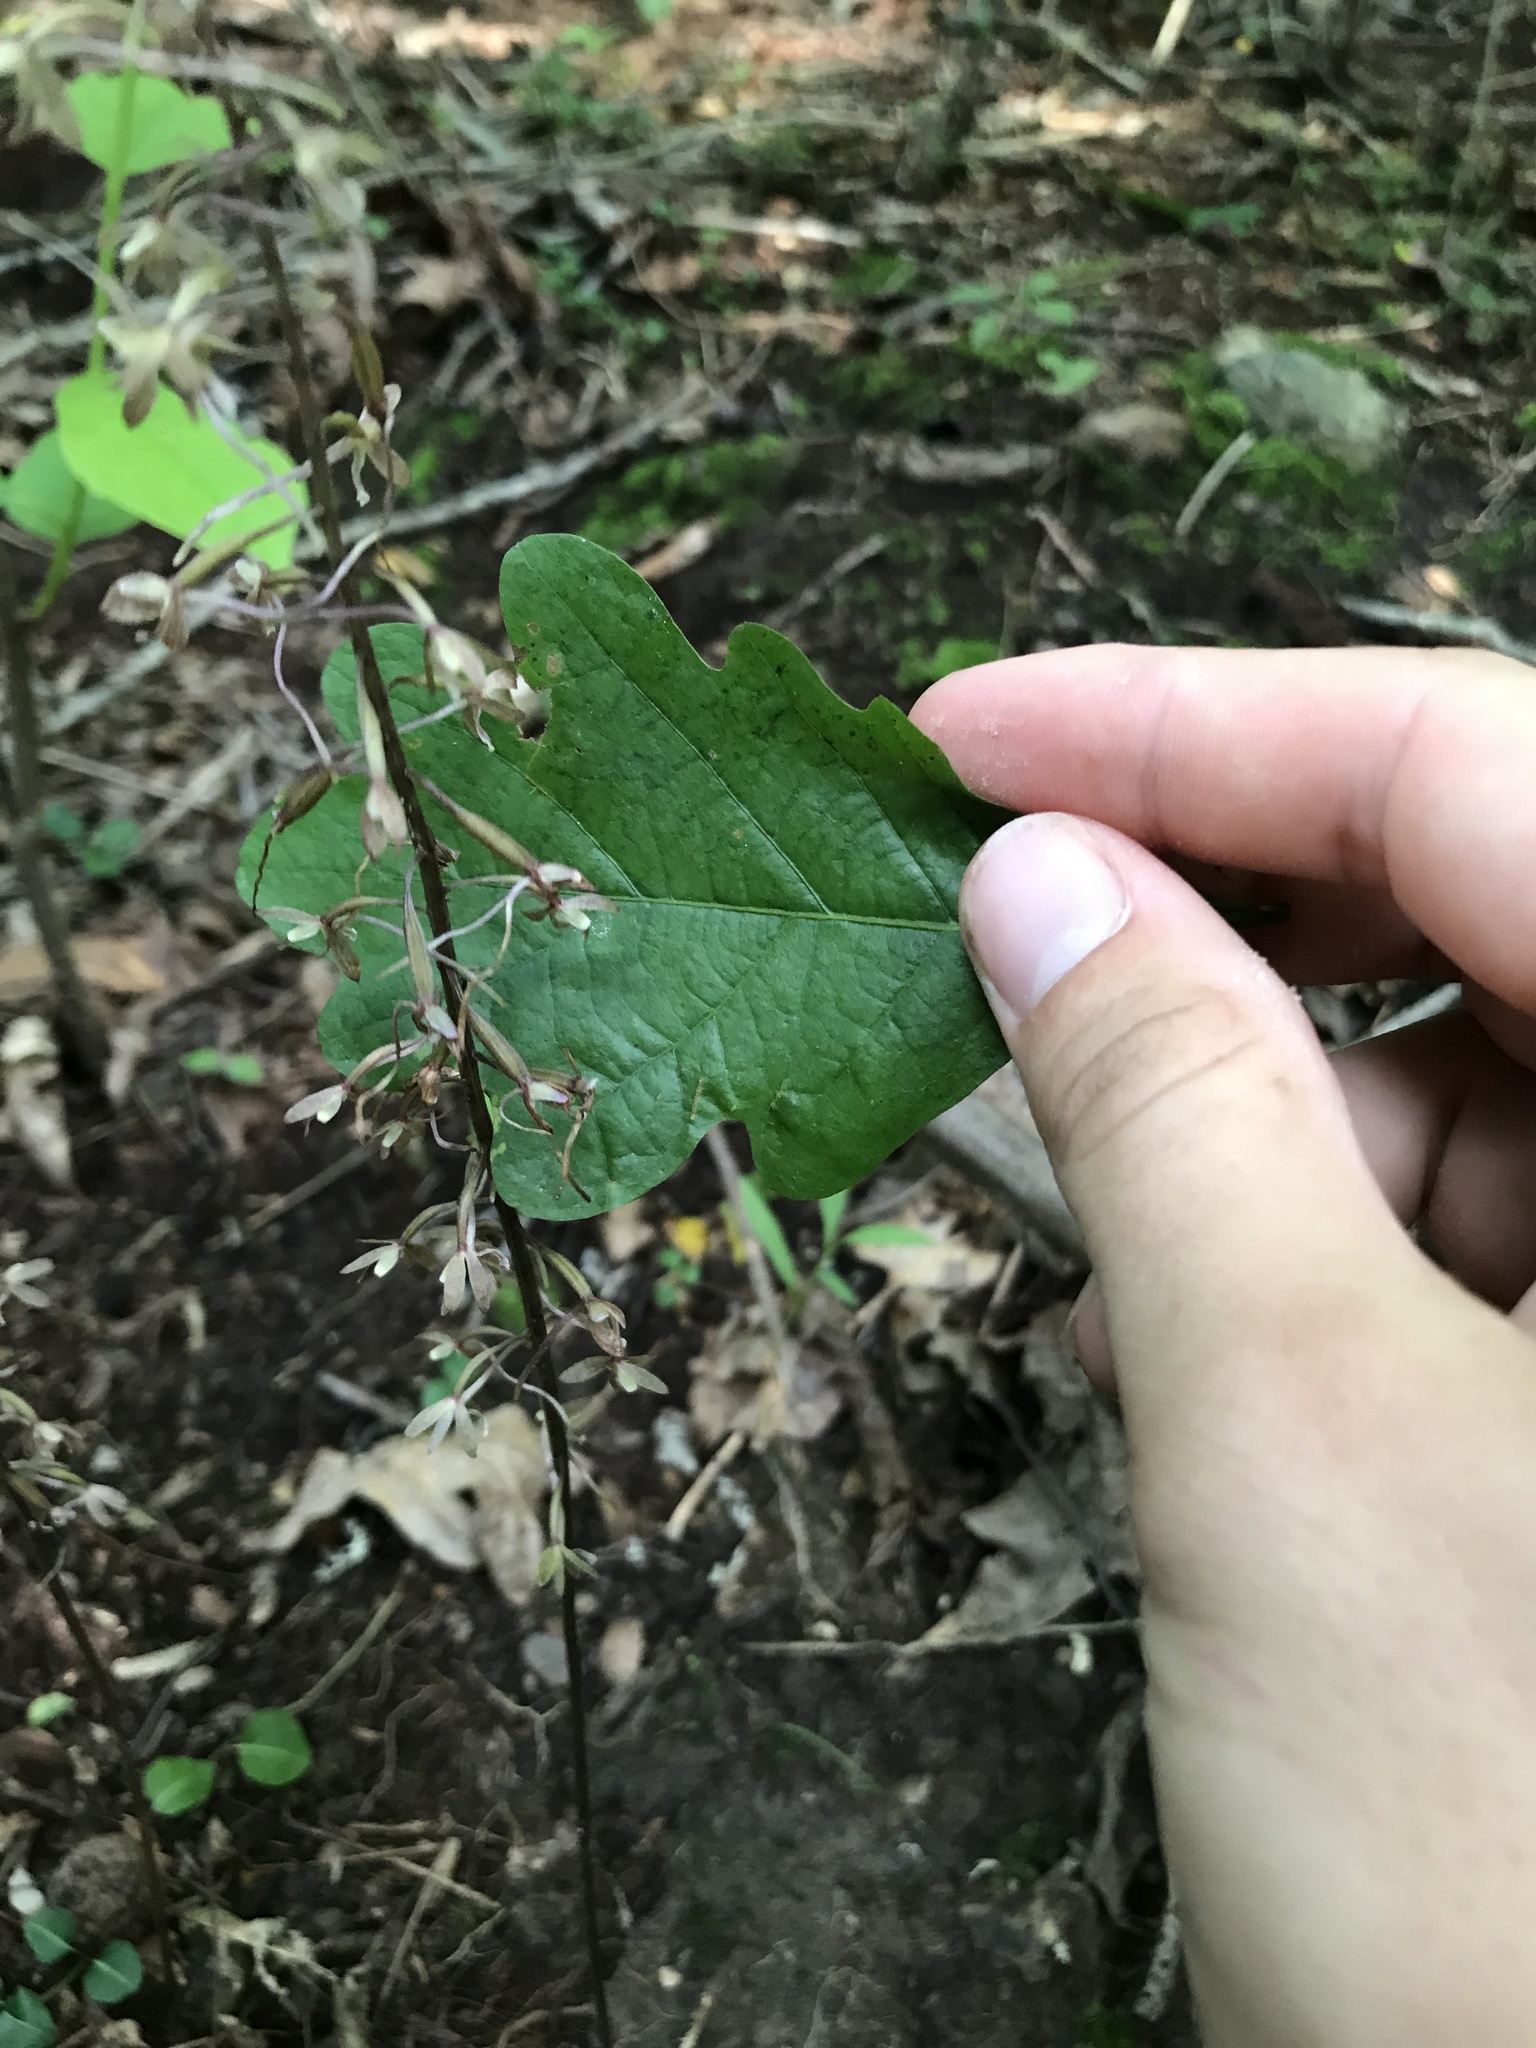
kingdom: Plantae
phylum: Tracheophyta
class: Liliopsida
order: Asparagales
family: Orchidaceae
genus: Tipularia
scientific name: Tipularia discolor
